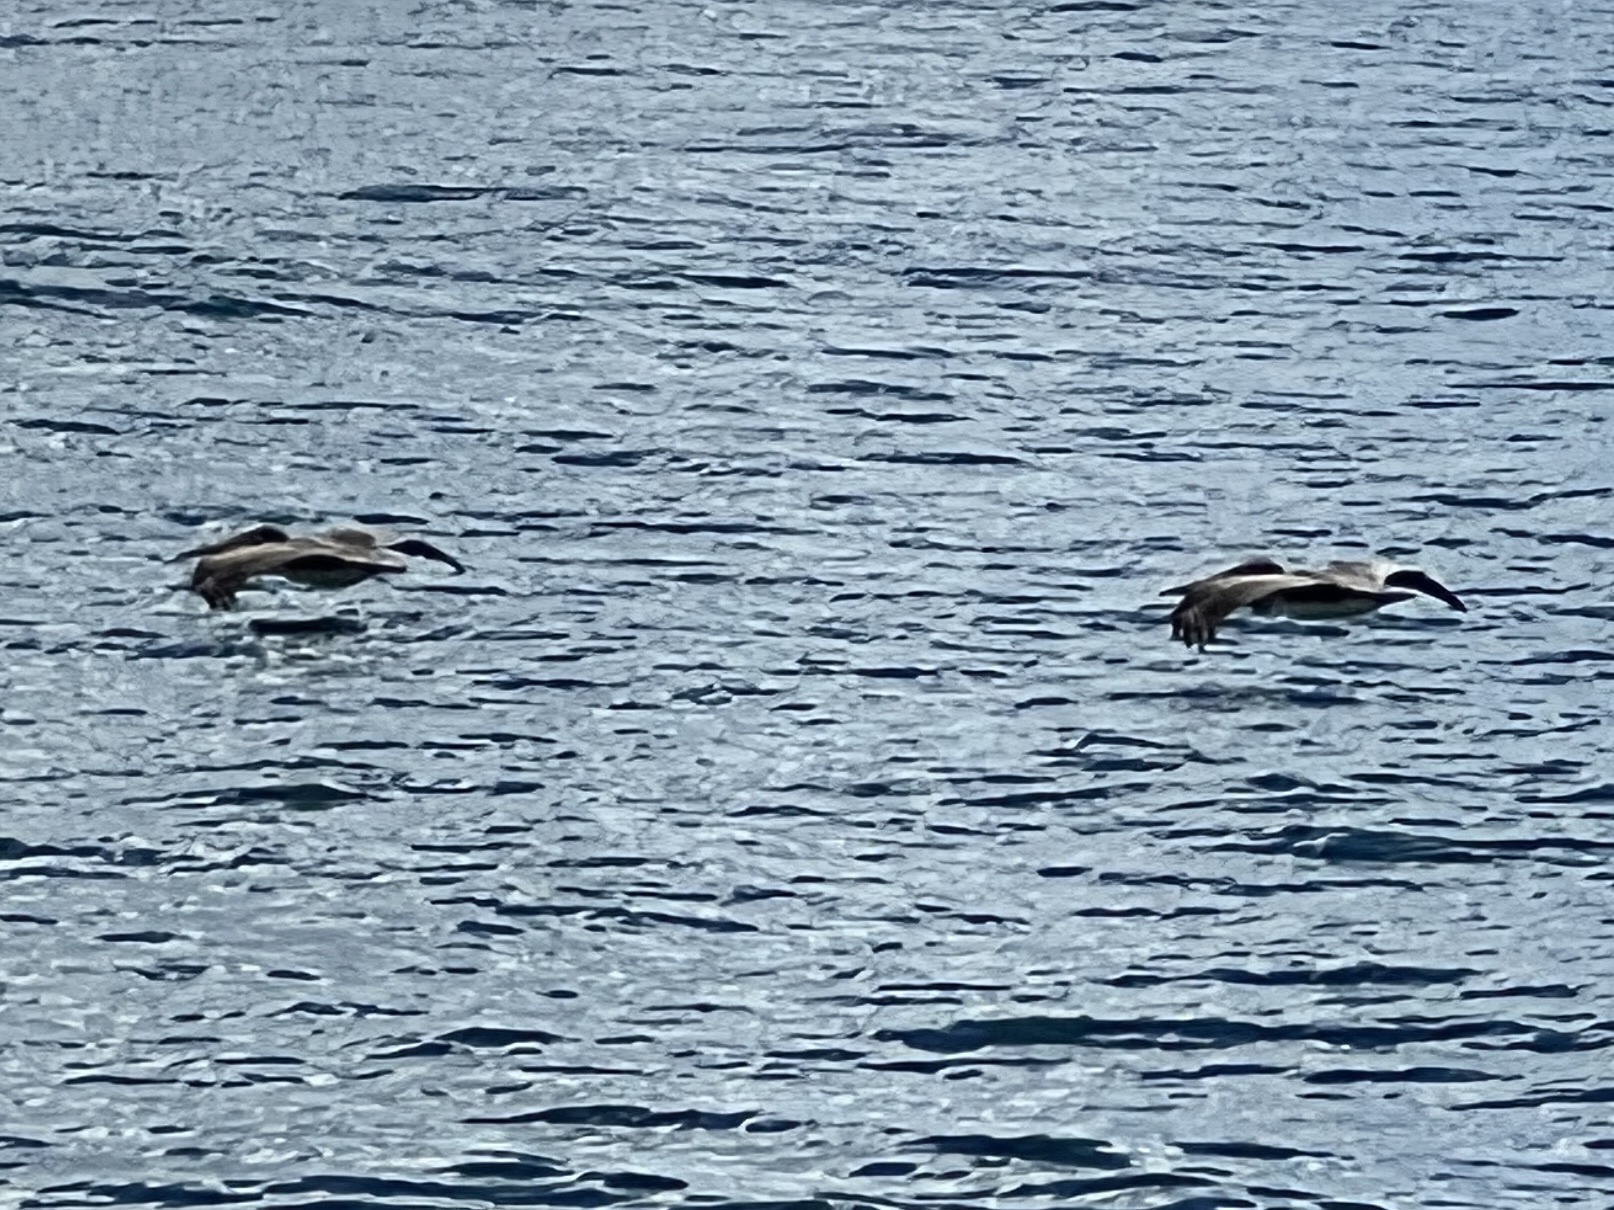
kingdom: Animalia
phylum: Chordata
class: Aves
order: Pelecaniformes
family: Pelecanidae
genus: Pelecanus
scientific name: Pelecanus occidentalis
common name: Brown pelican
